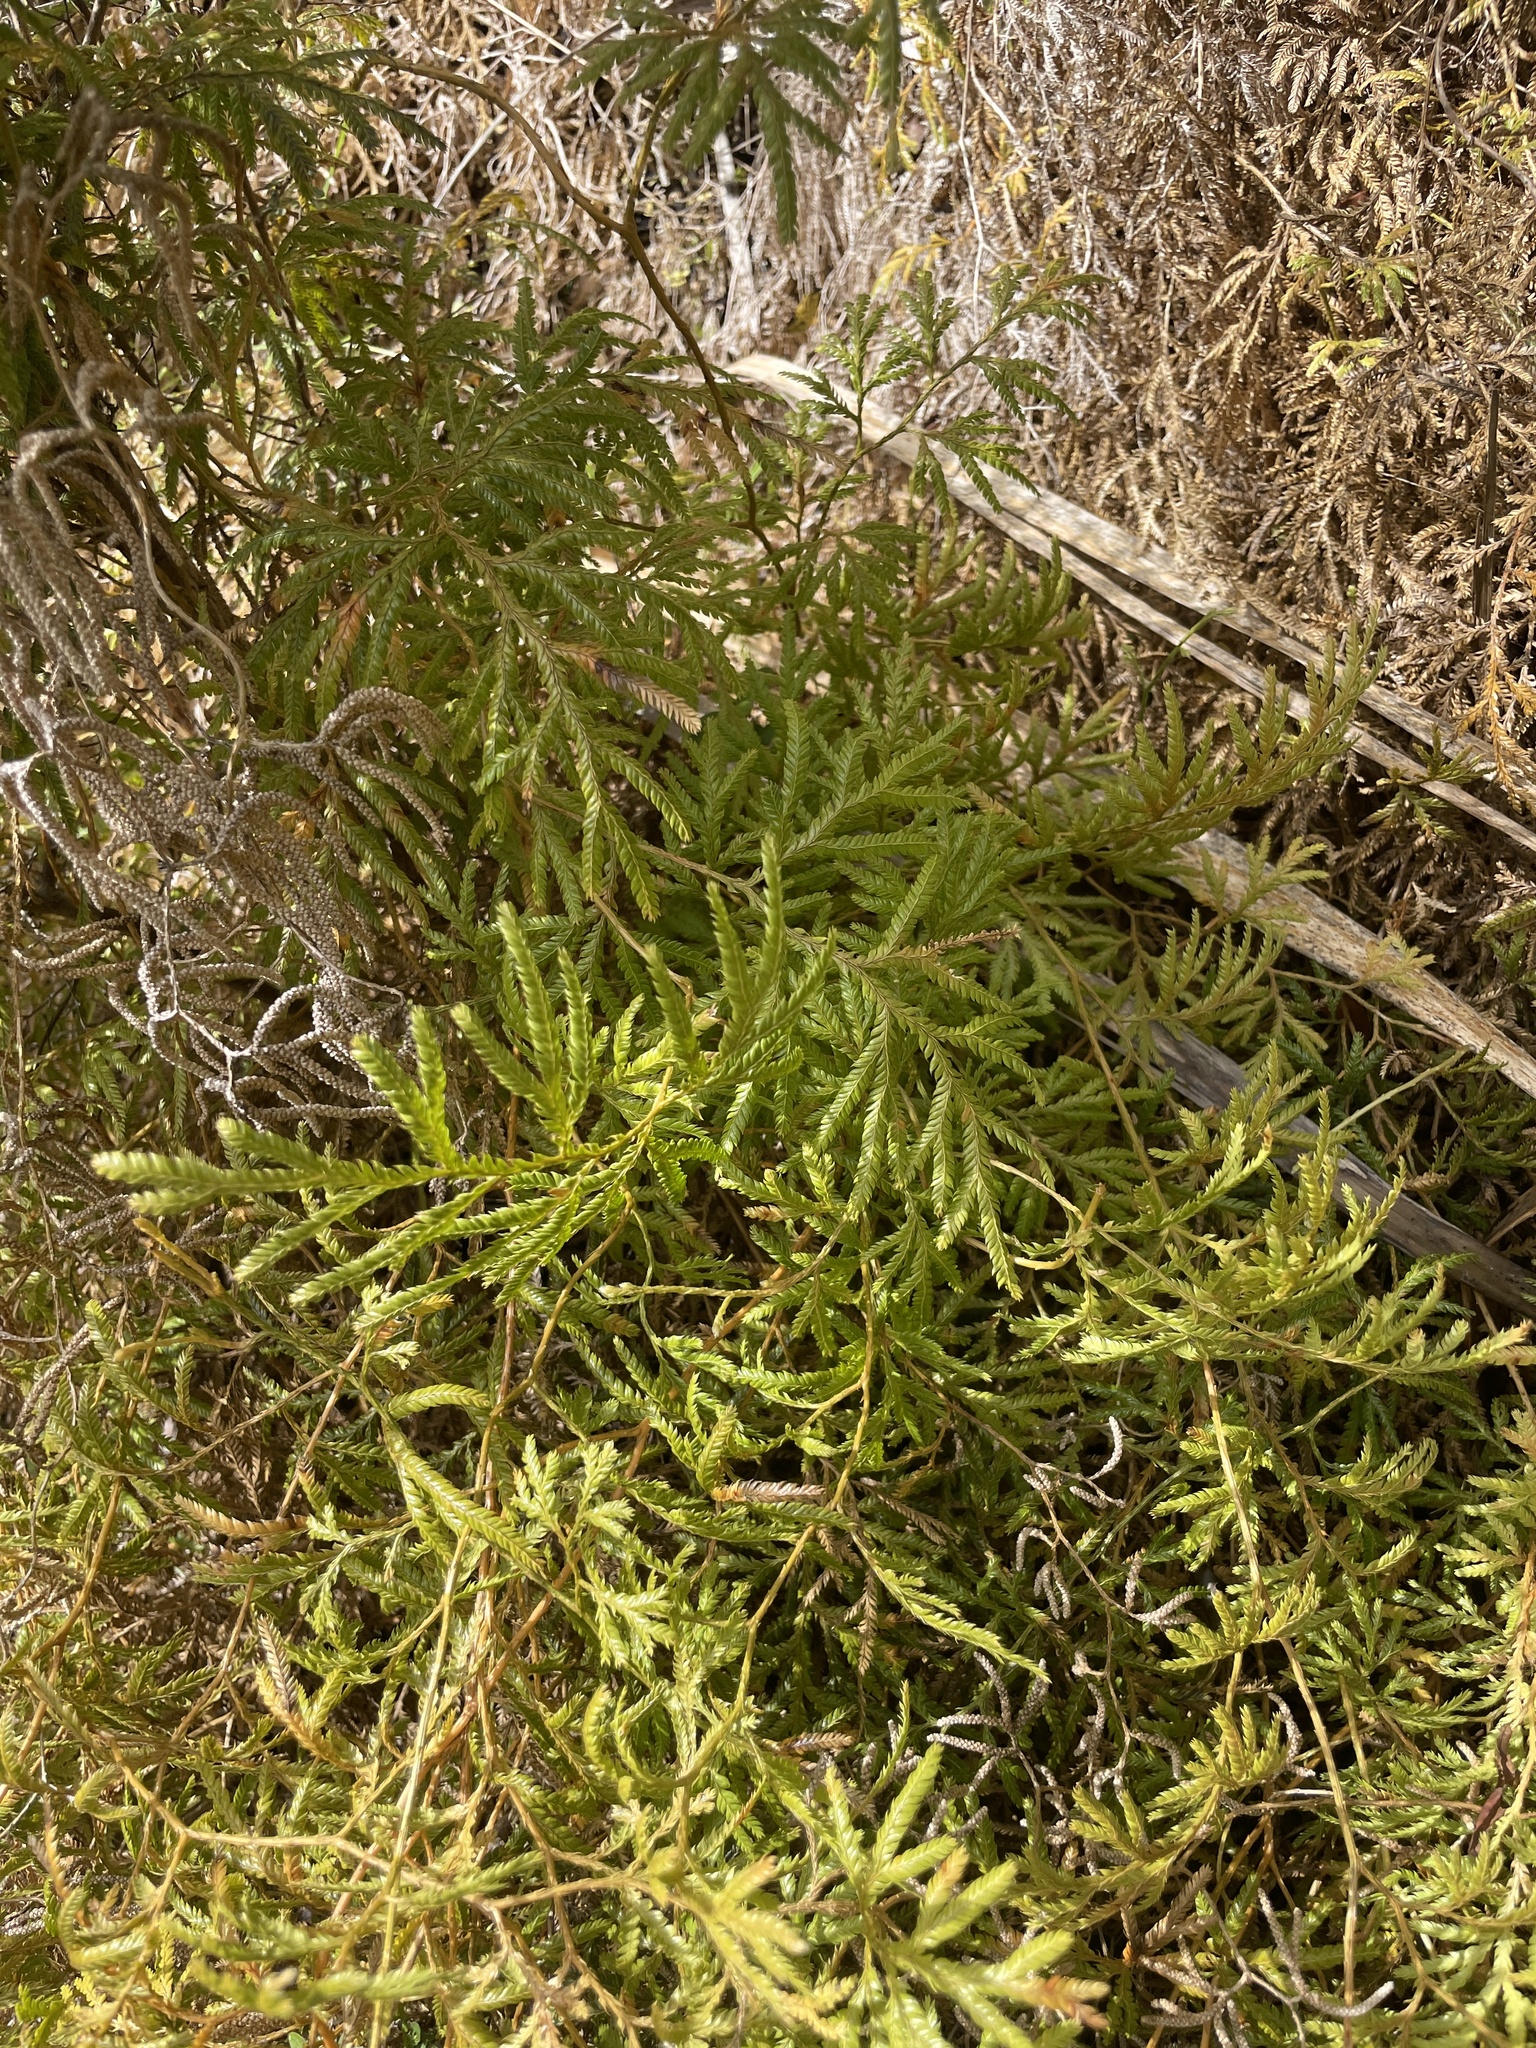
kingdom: Plantae
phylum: Tracheophyta
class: Lycopodiopsida
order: Lycopodiales
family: Lycopodiaceae
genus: Lycopodium
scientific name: Lycopodium volubile
